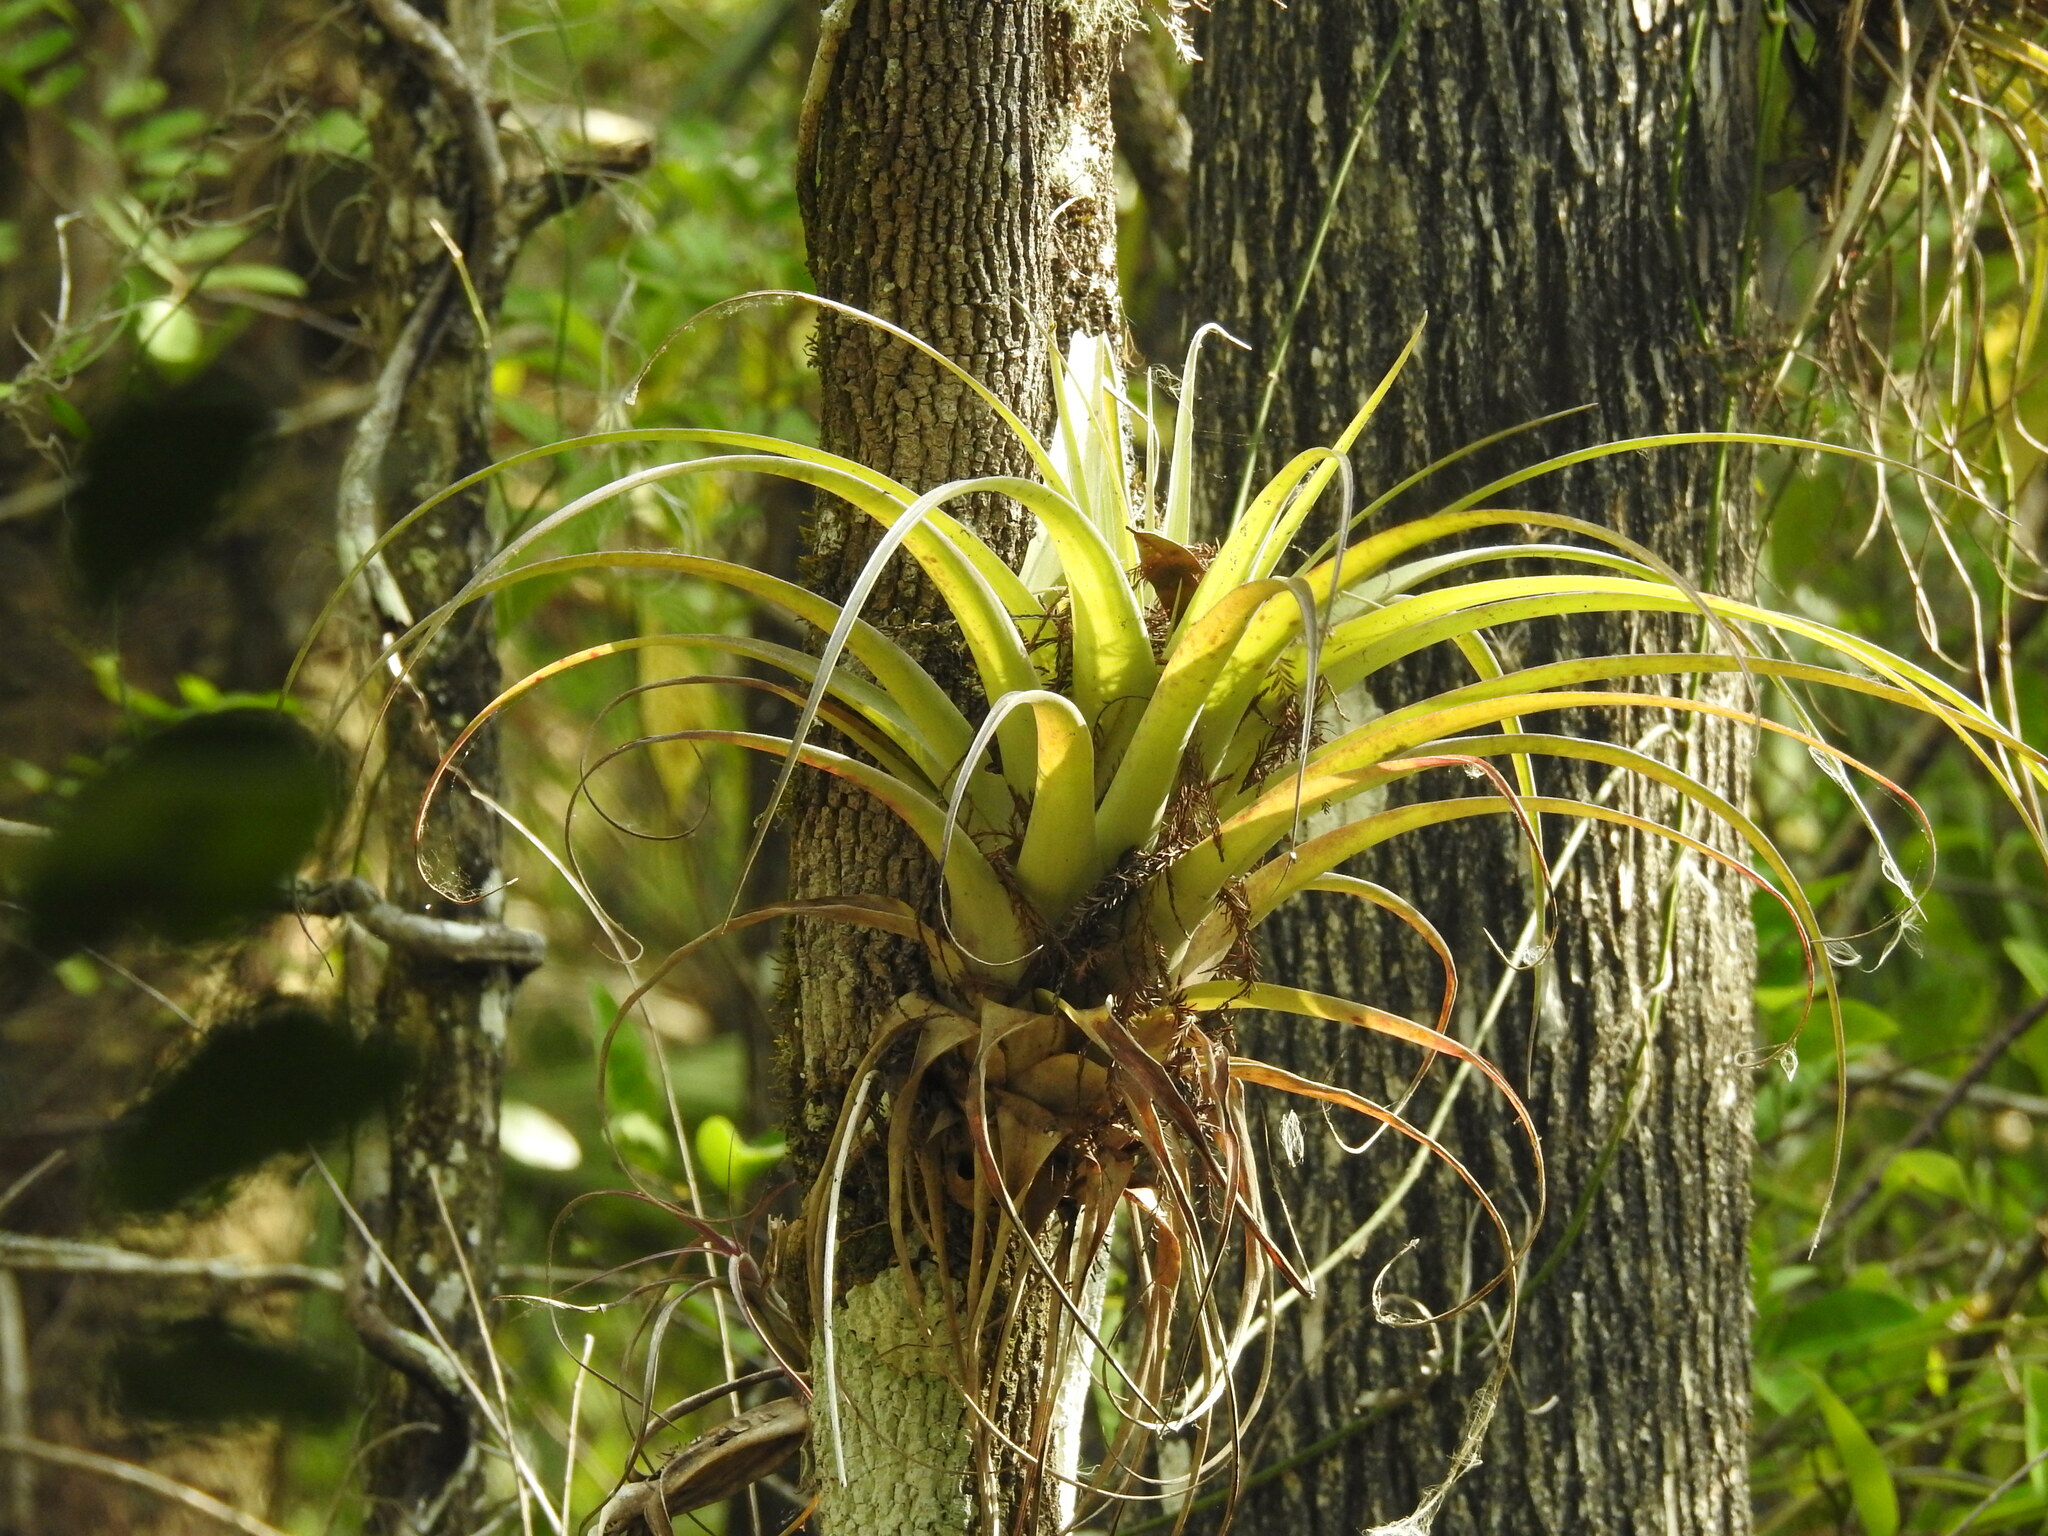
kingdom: Plantae
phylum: Tracheophyta
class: Liliopsida
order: Poales
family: Bromeliaceae
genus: Tillandsia
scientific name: Tillandsia utriculata
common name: Wild pine
